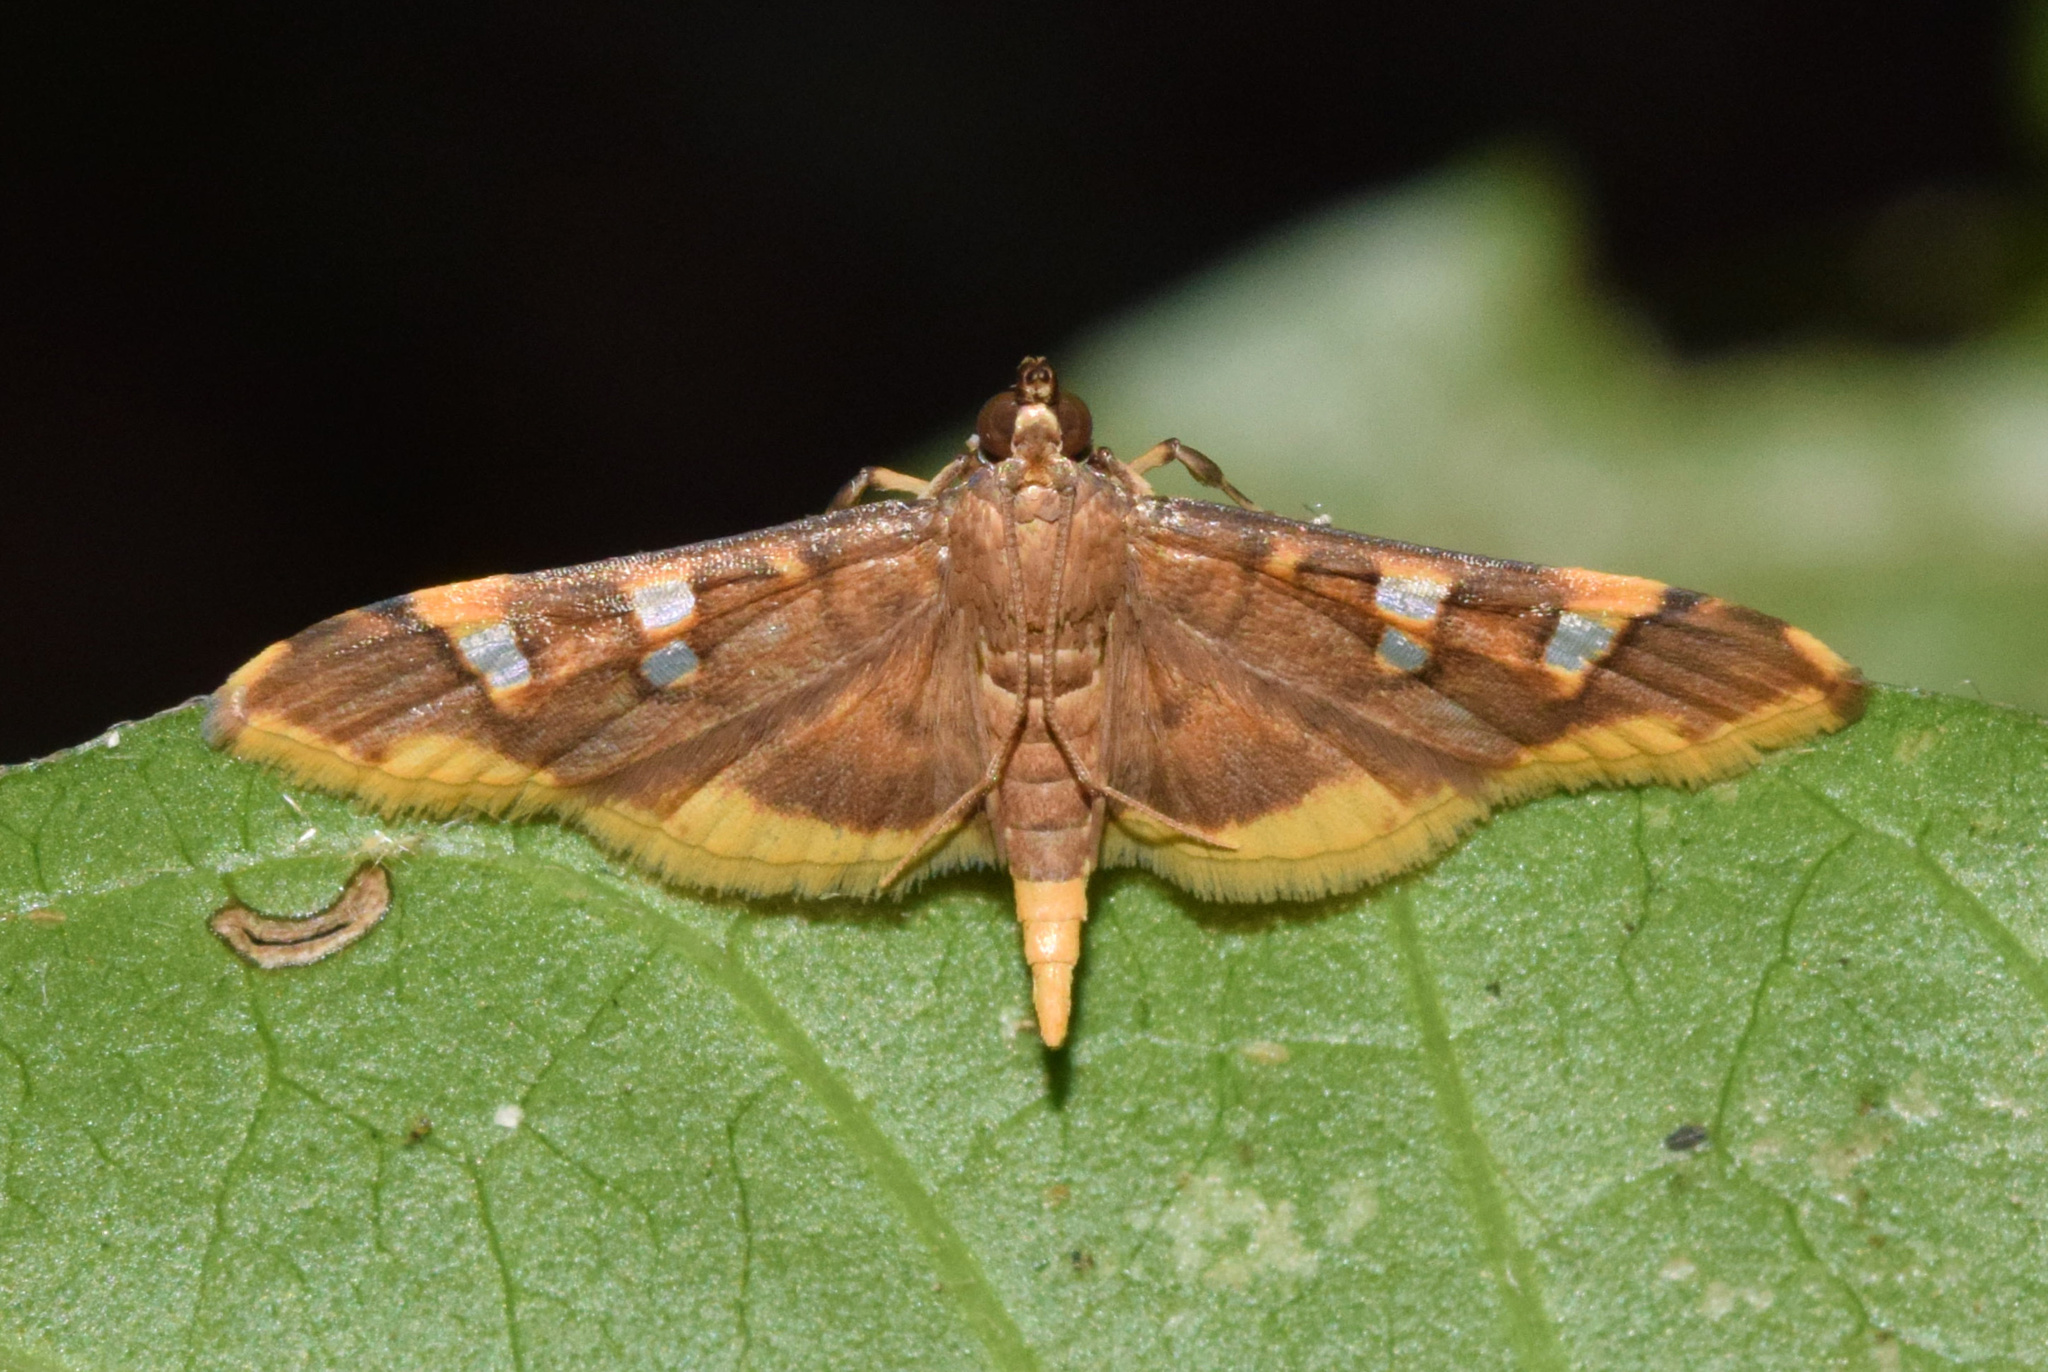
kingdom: Animalia
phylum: Arthropoda
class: Insecta
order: Lepidoptera
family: Crambidae
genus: Prophantis
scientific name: Prophantis smaragdina
